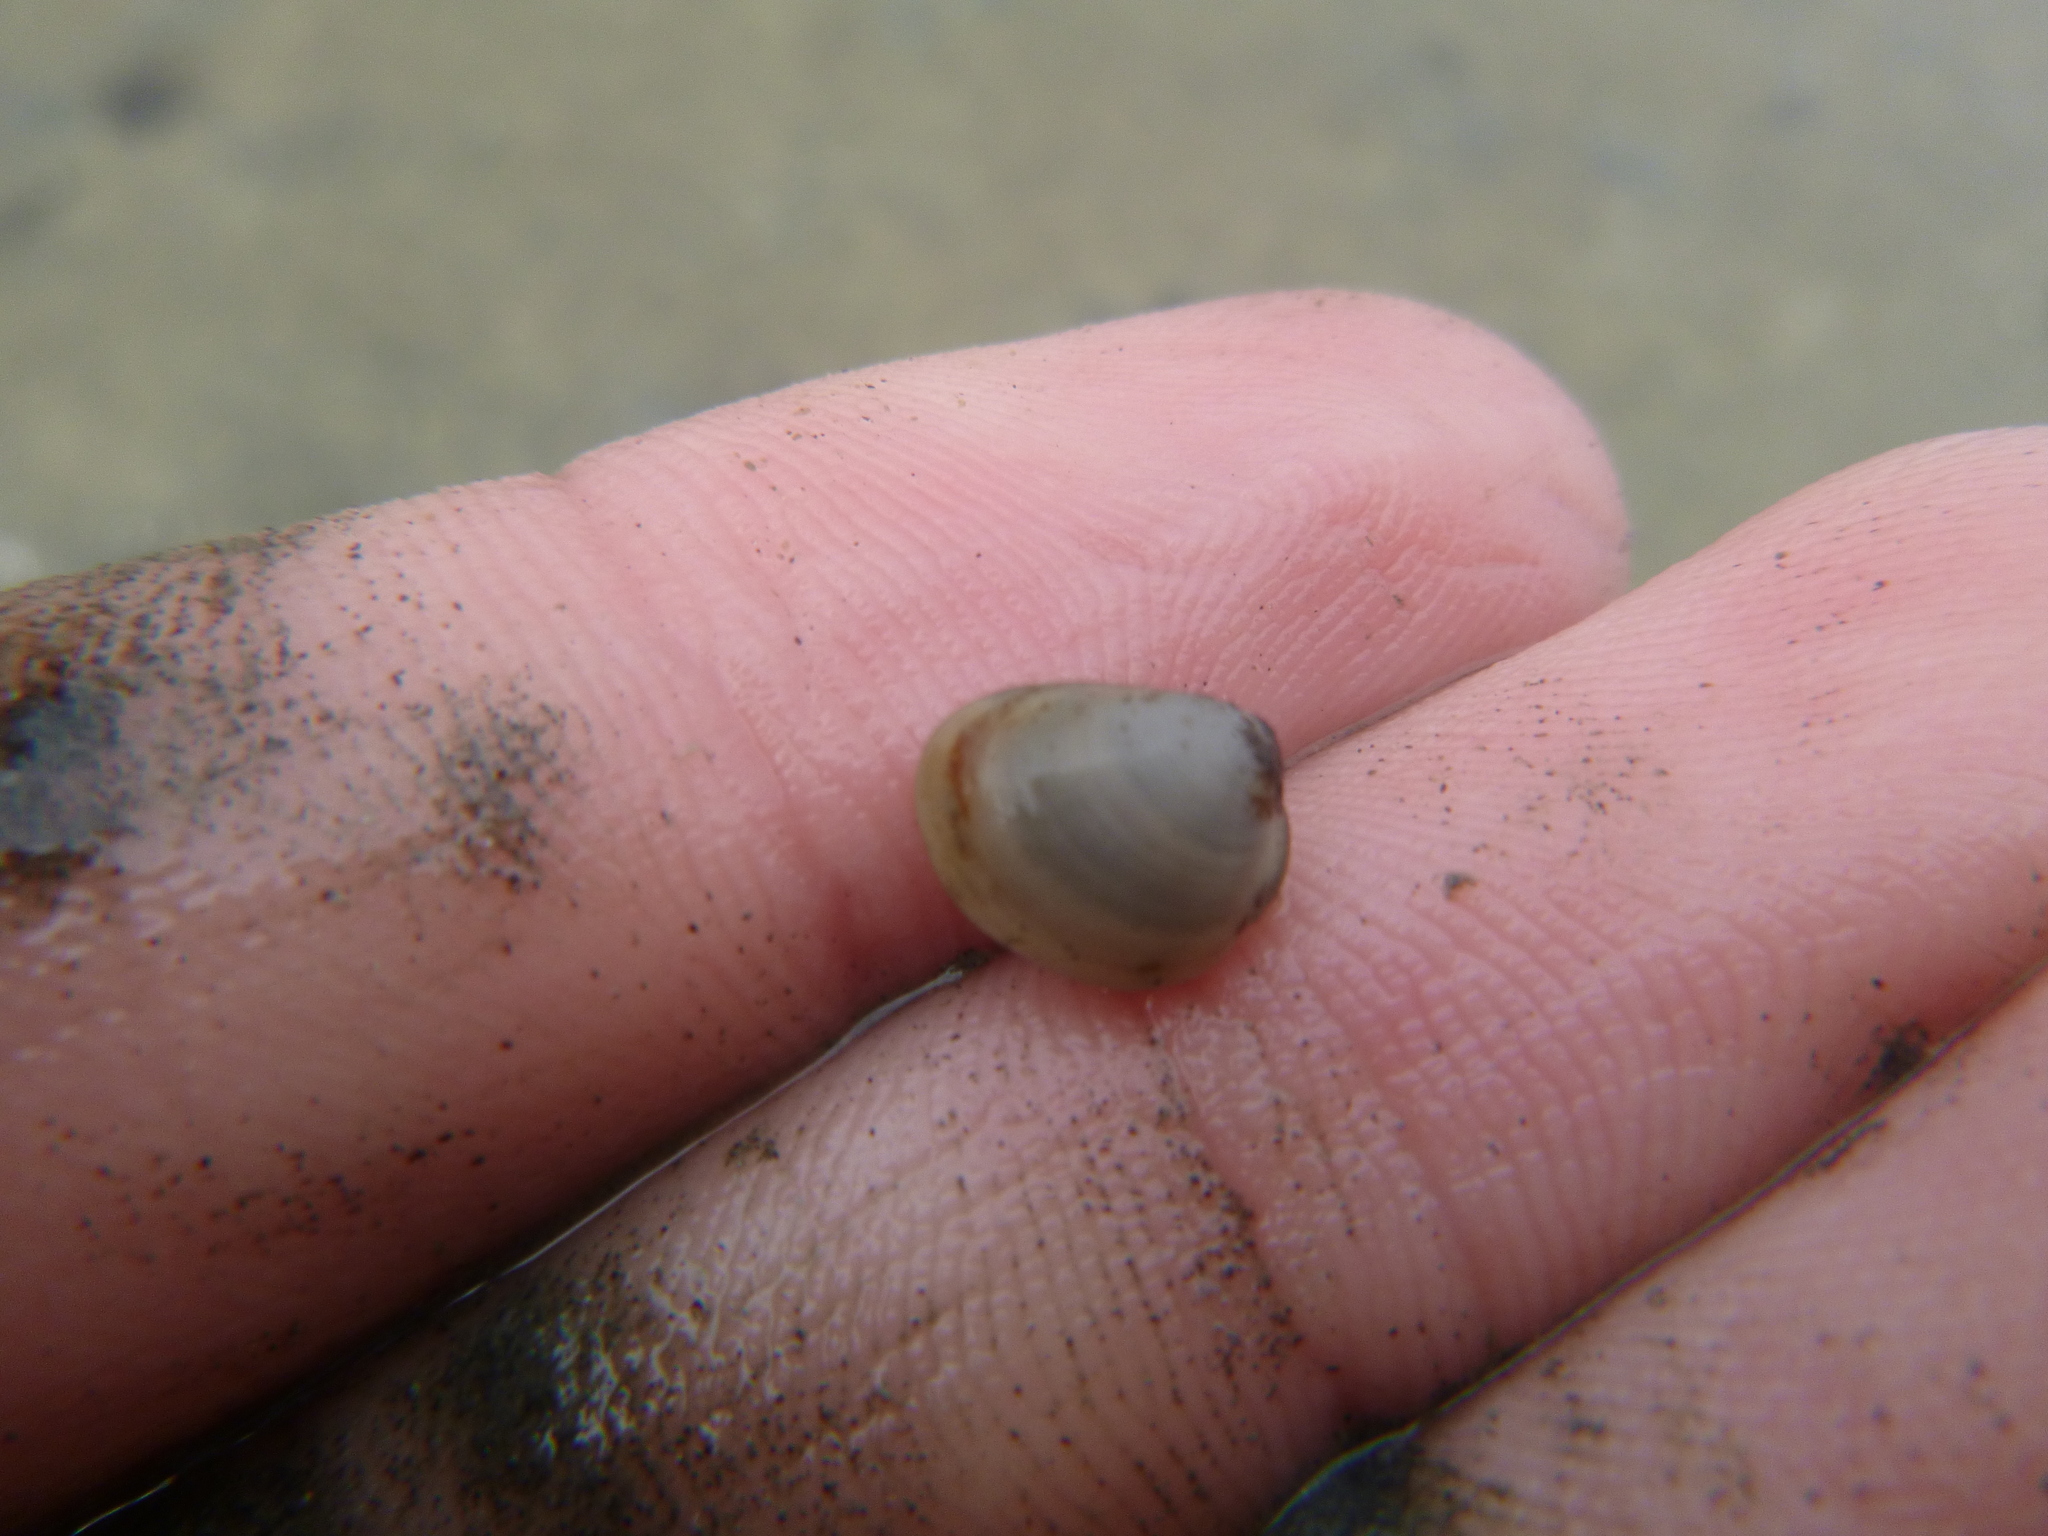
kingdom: Animalia
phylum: Mollusca
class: Bivalvia
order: Nuculida
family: Nuculidae
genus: Linucula
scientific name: Linucula hartvigiana
